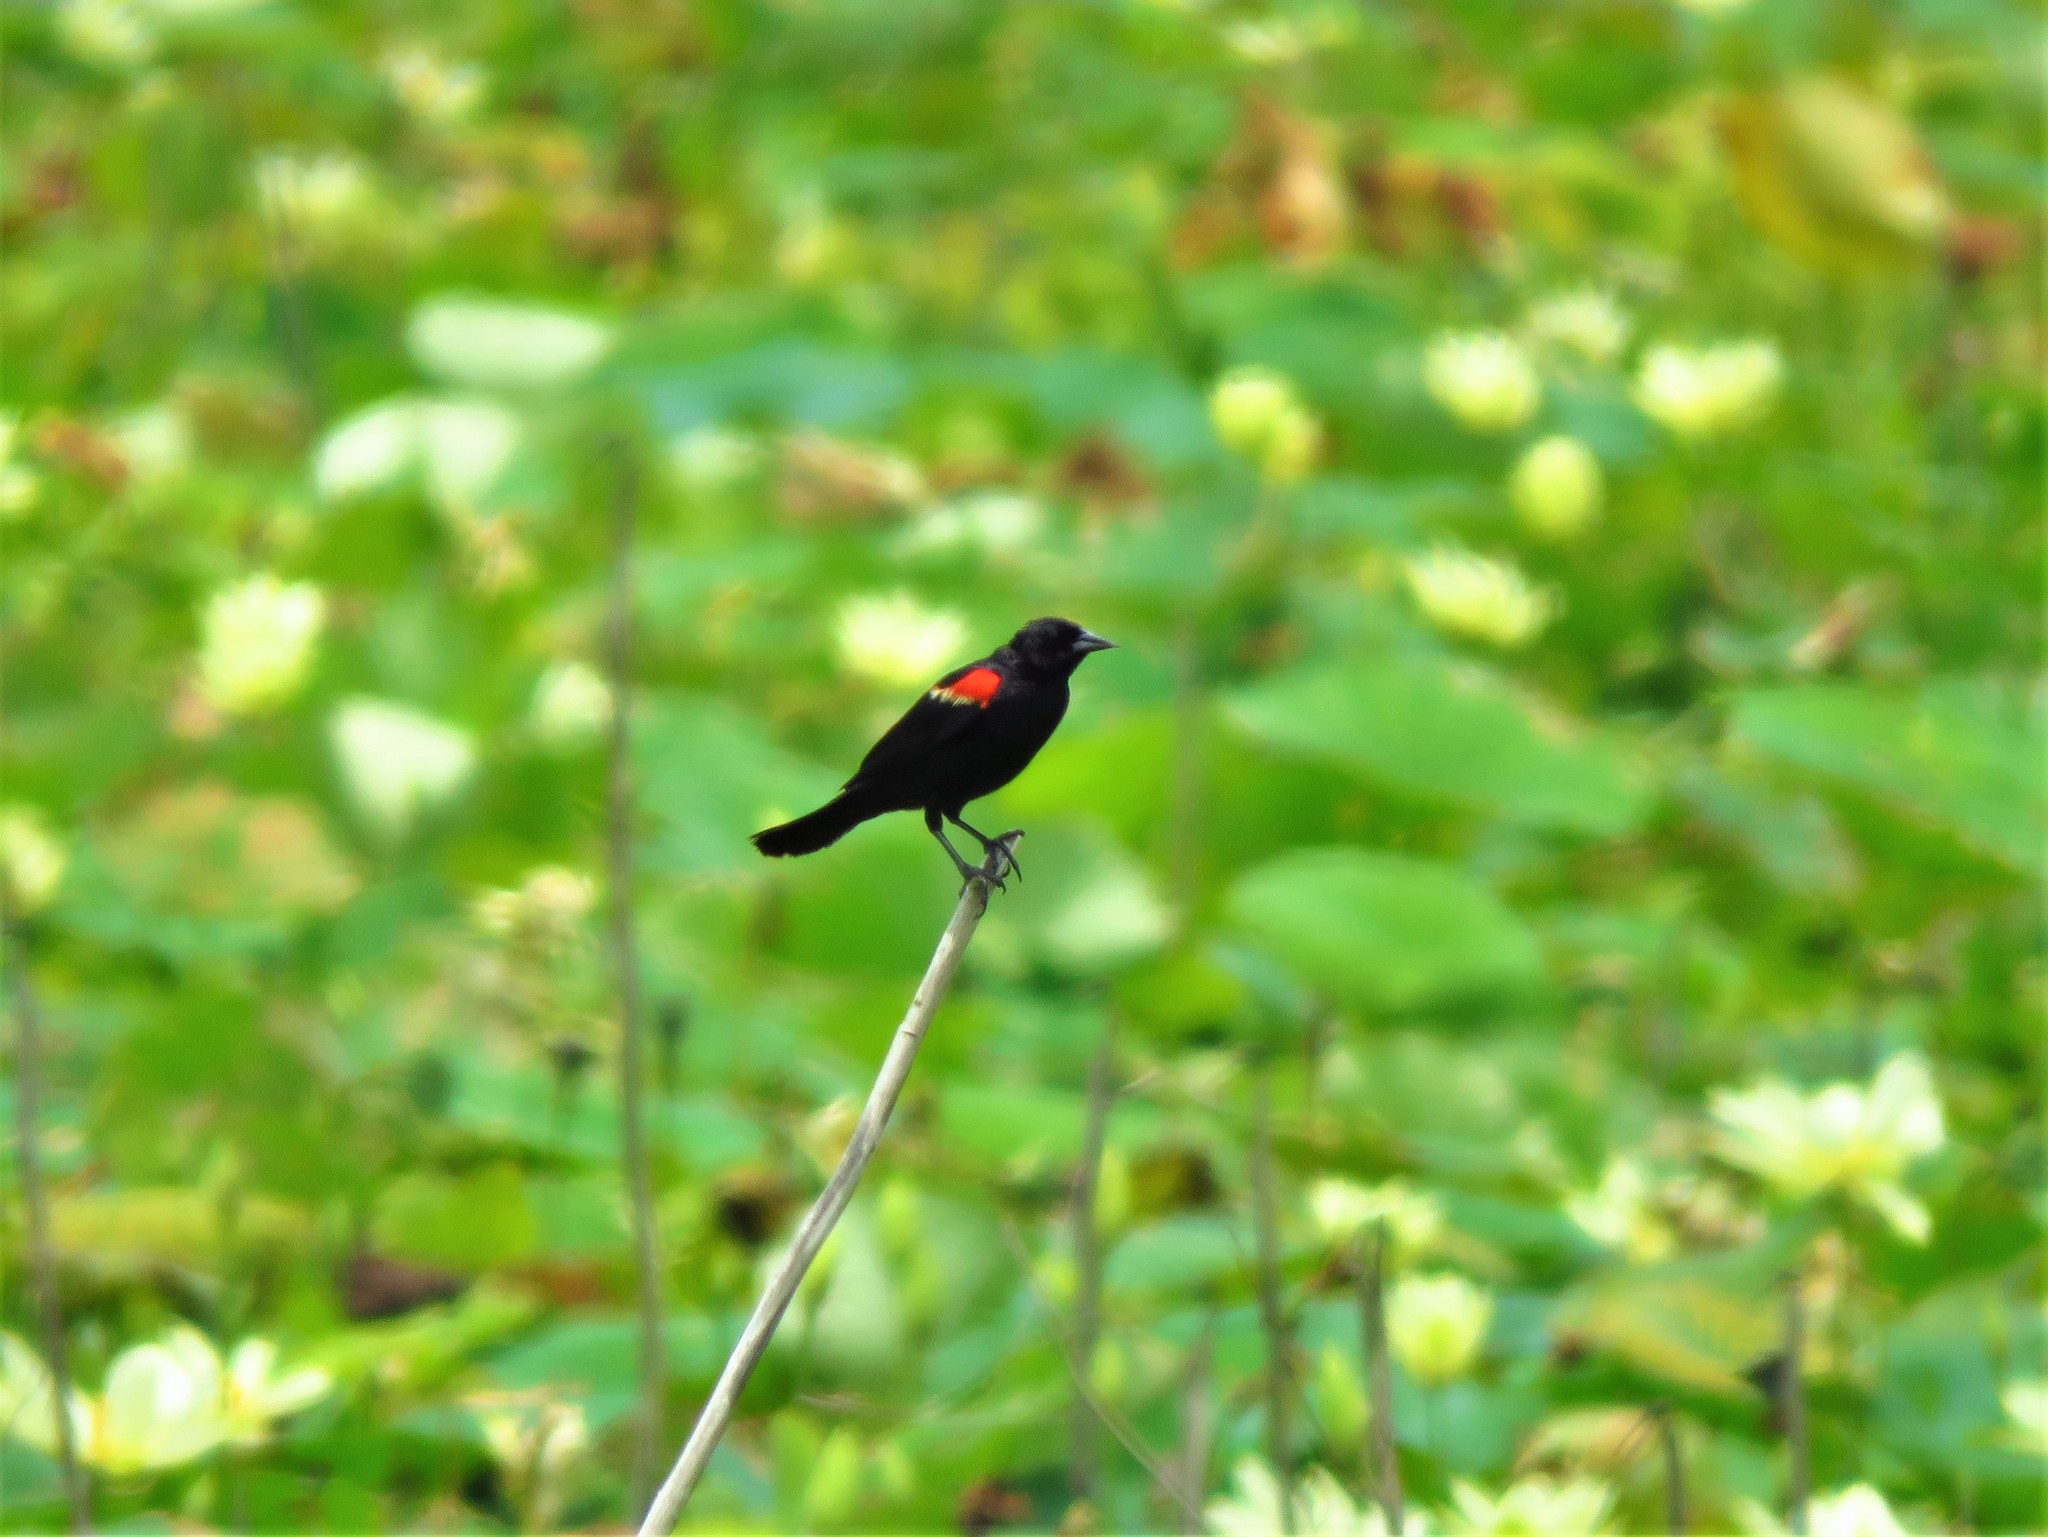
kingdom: Animalia
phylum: Chordata
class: Aves
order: Passeriformes
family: Icteridae
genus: Agelaius
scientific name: Agelaius phoeniceus
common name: Red-winged blackbird
